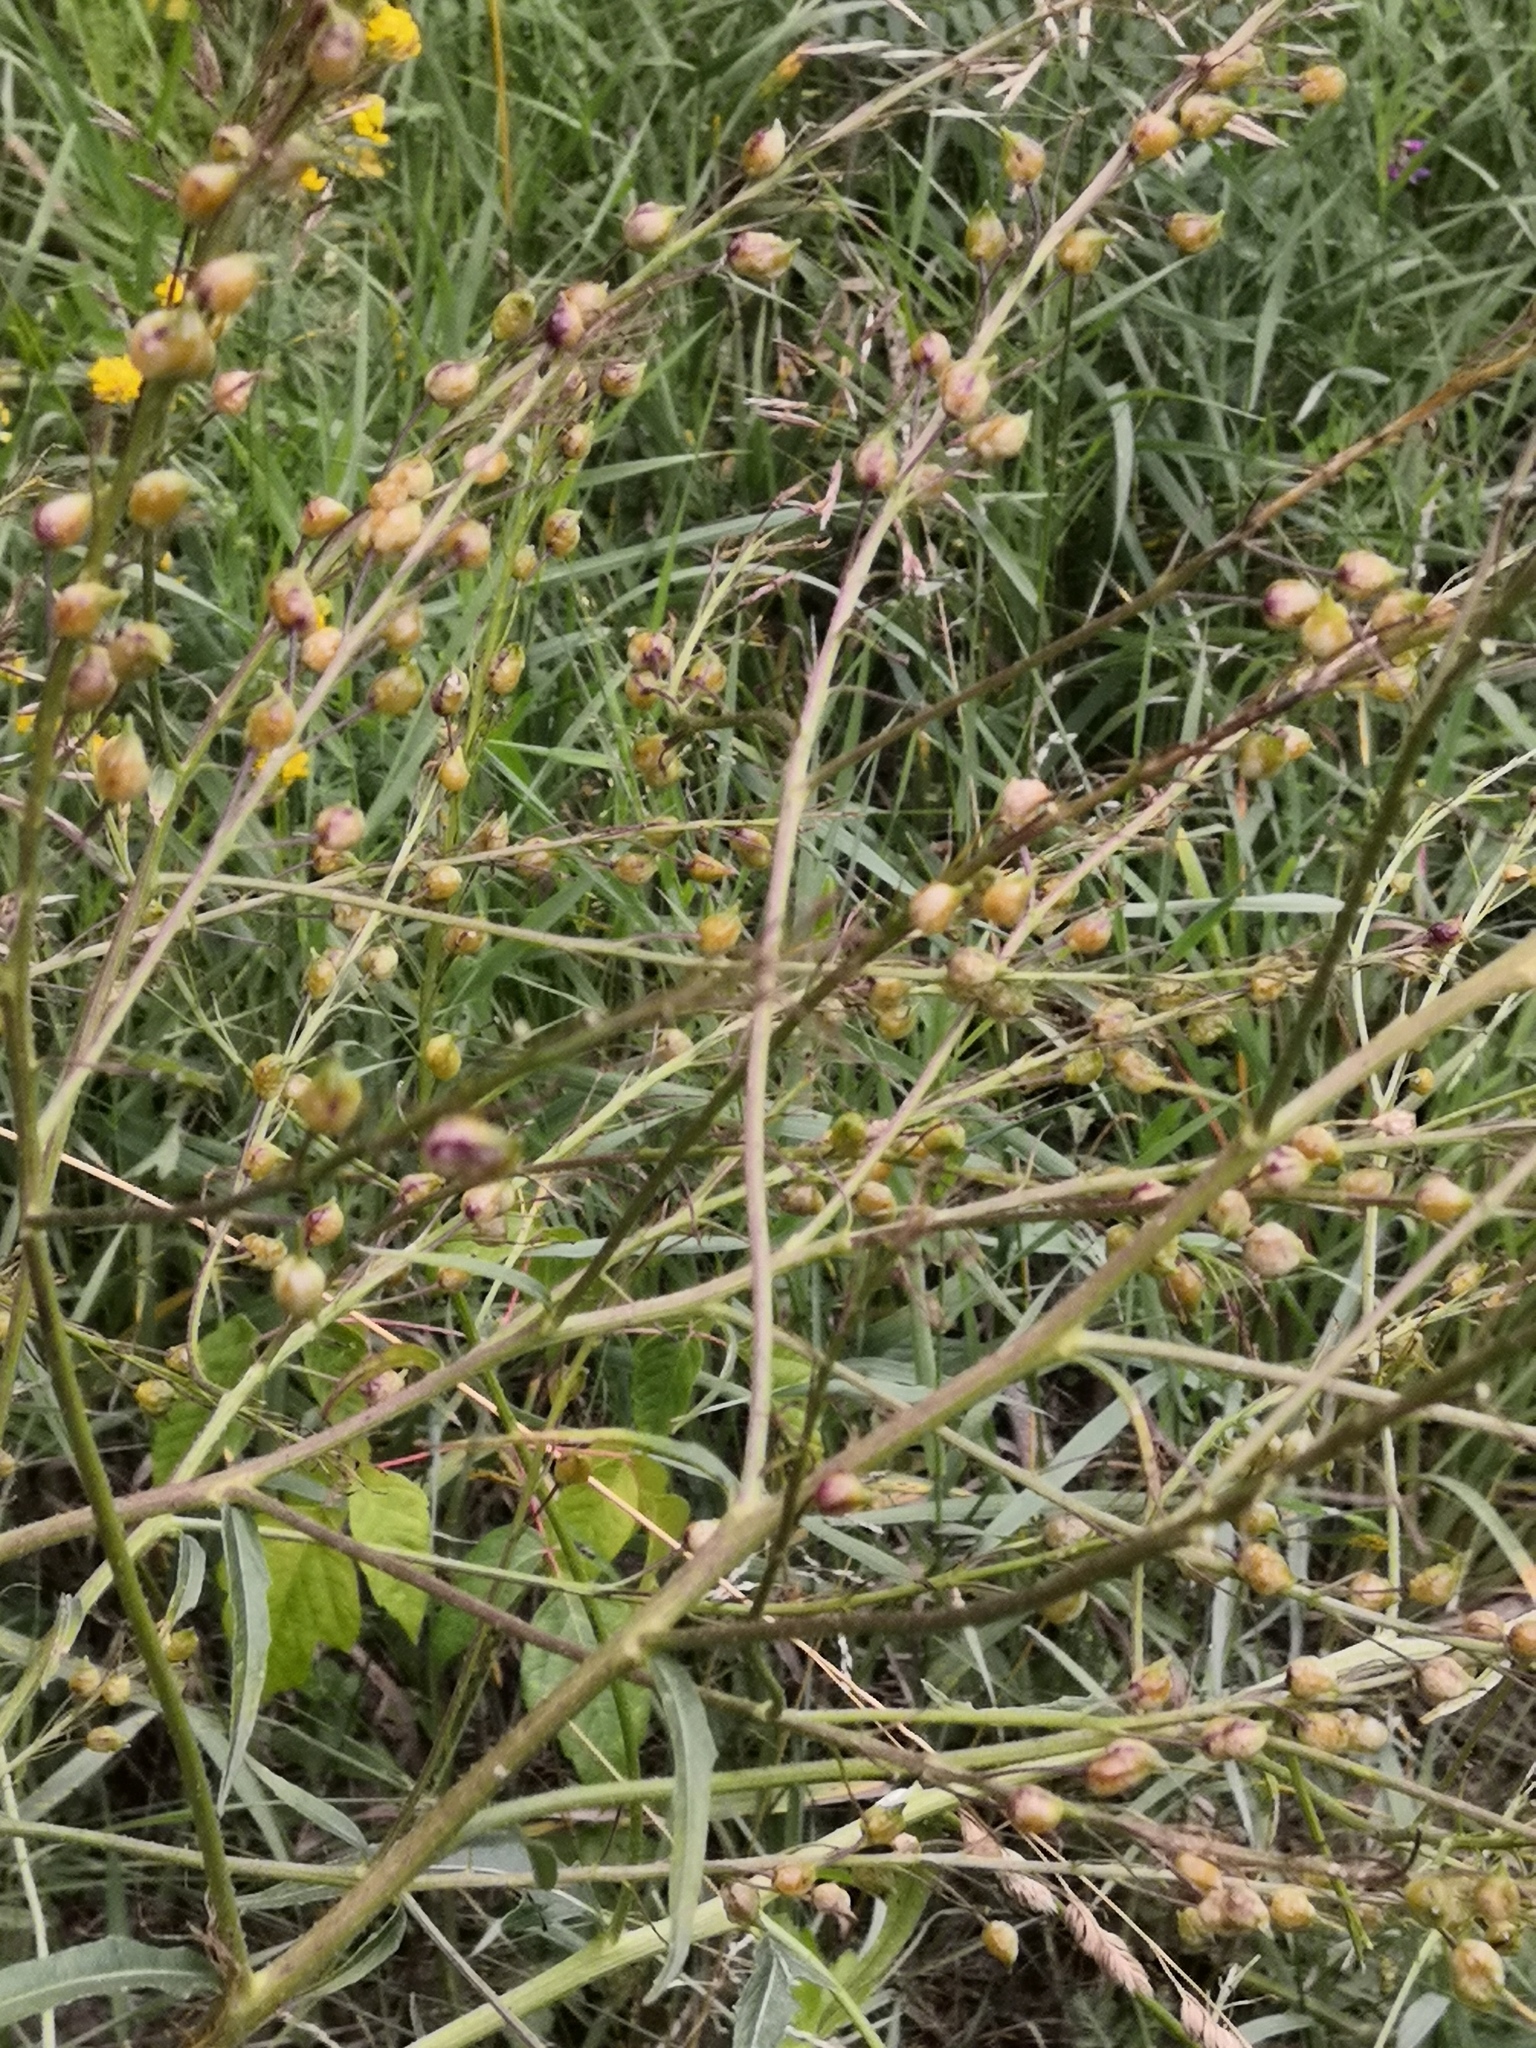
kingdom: Plantae
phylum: Tracheophyta
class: Magnoliopsida
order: Brassicales
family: Brassicaceae
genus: Bunias
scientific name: Bunias orientalis
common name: Warty-cabbage
